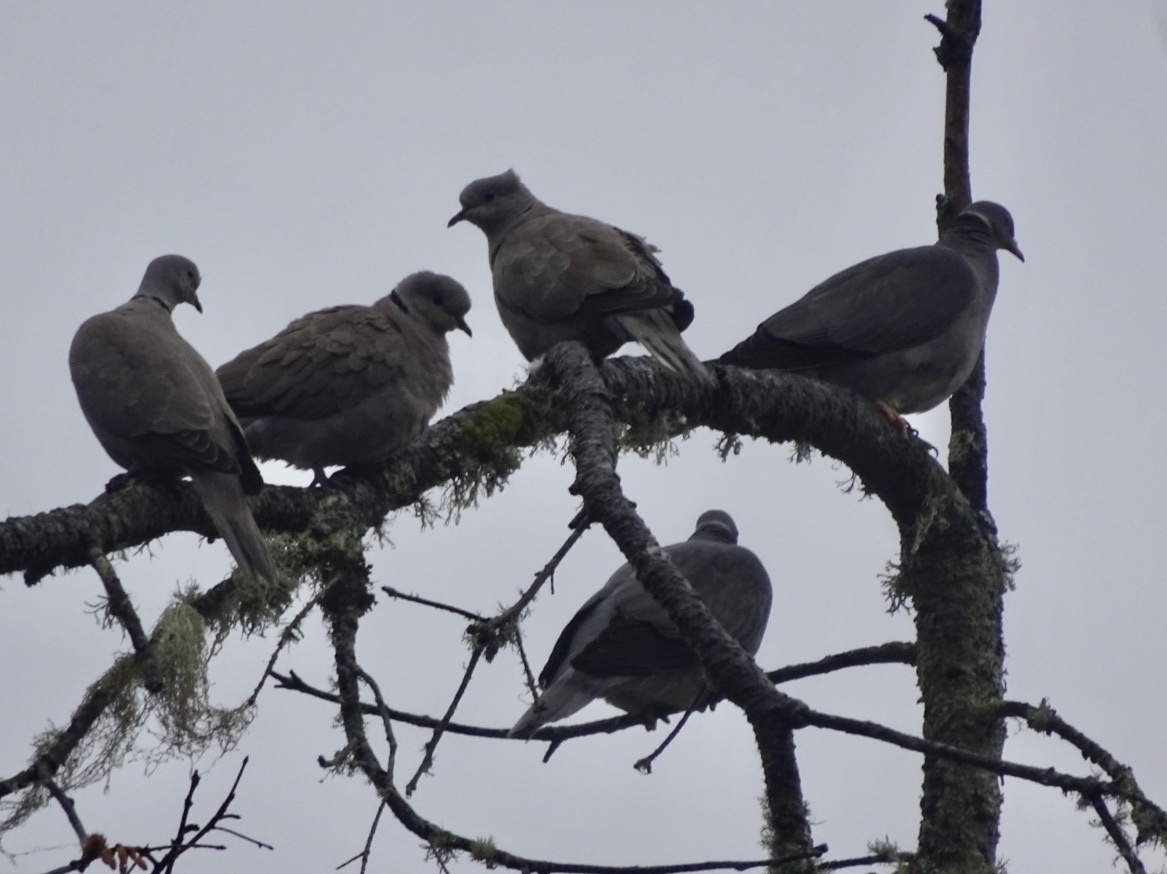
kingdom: Animalia
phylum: Chordata
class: Aves
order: Columbiformes
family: Columbidae
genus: Patagioenas
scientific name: Patagioenas fasciata
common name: Band-tailed pigeon
